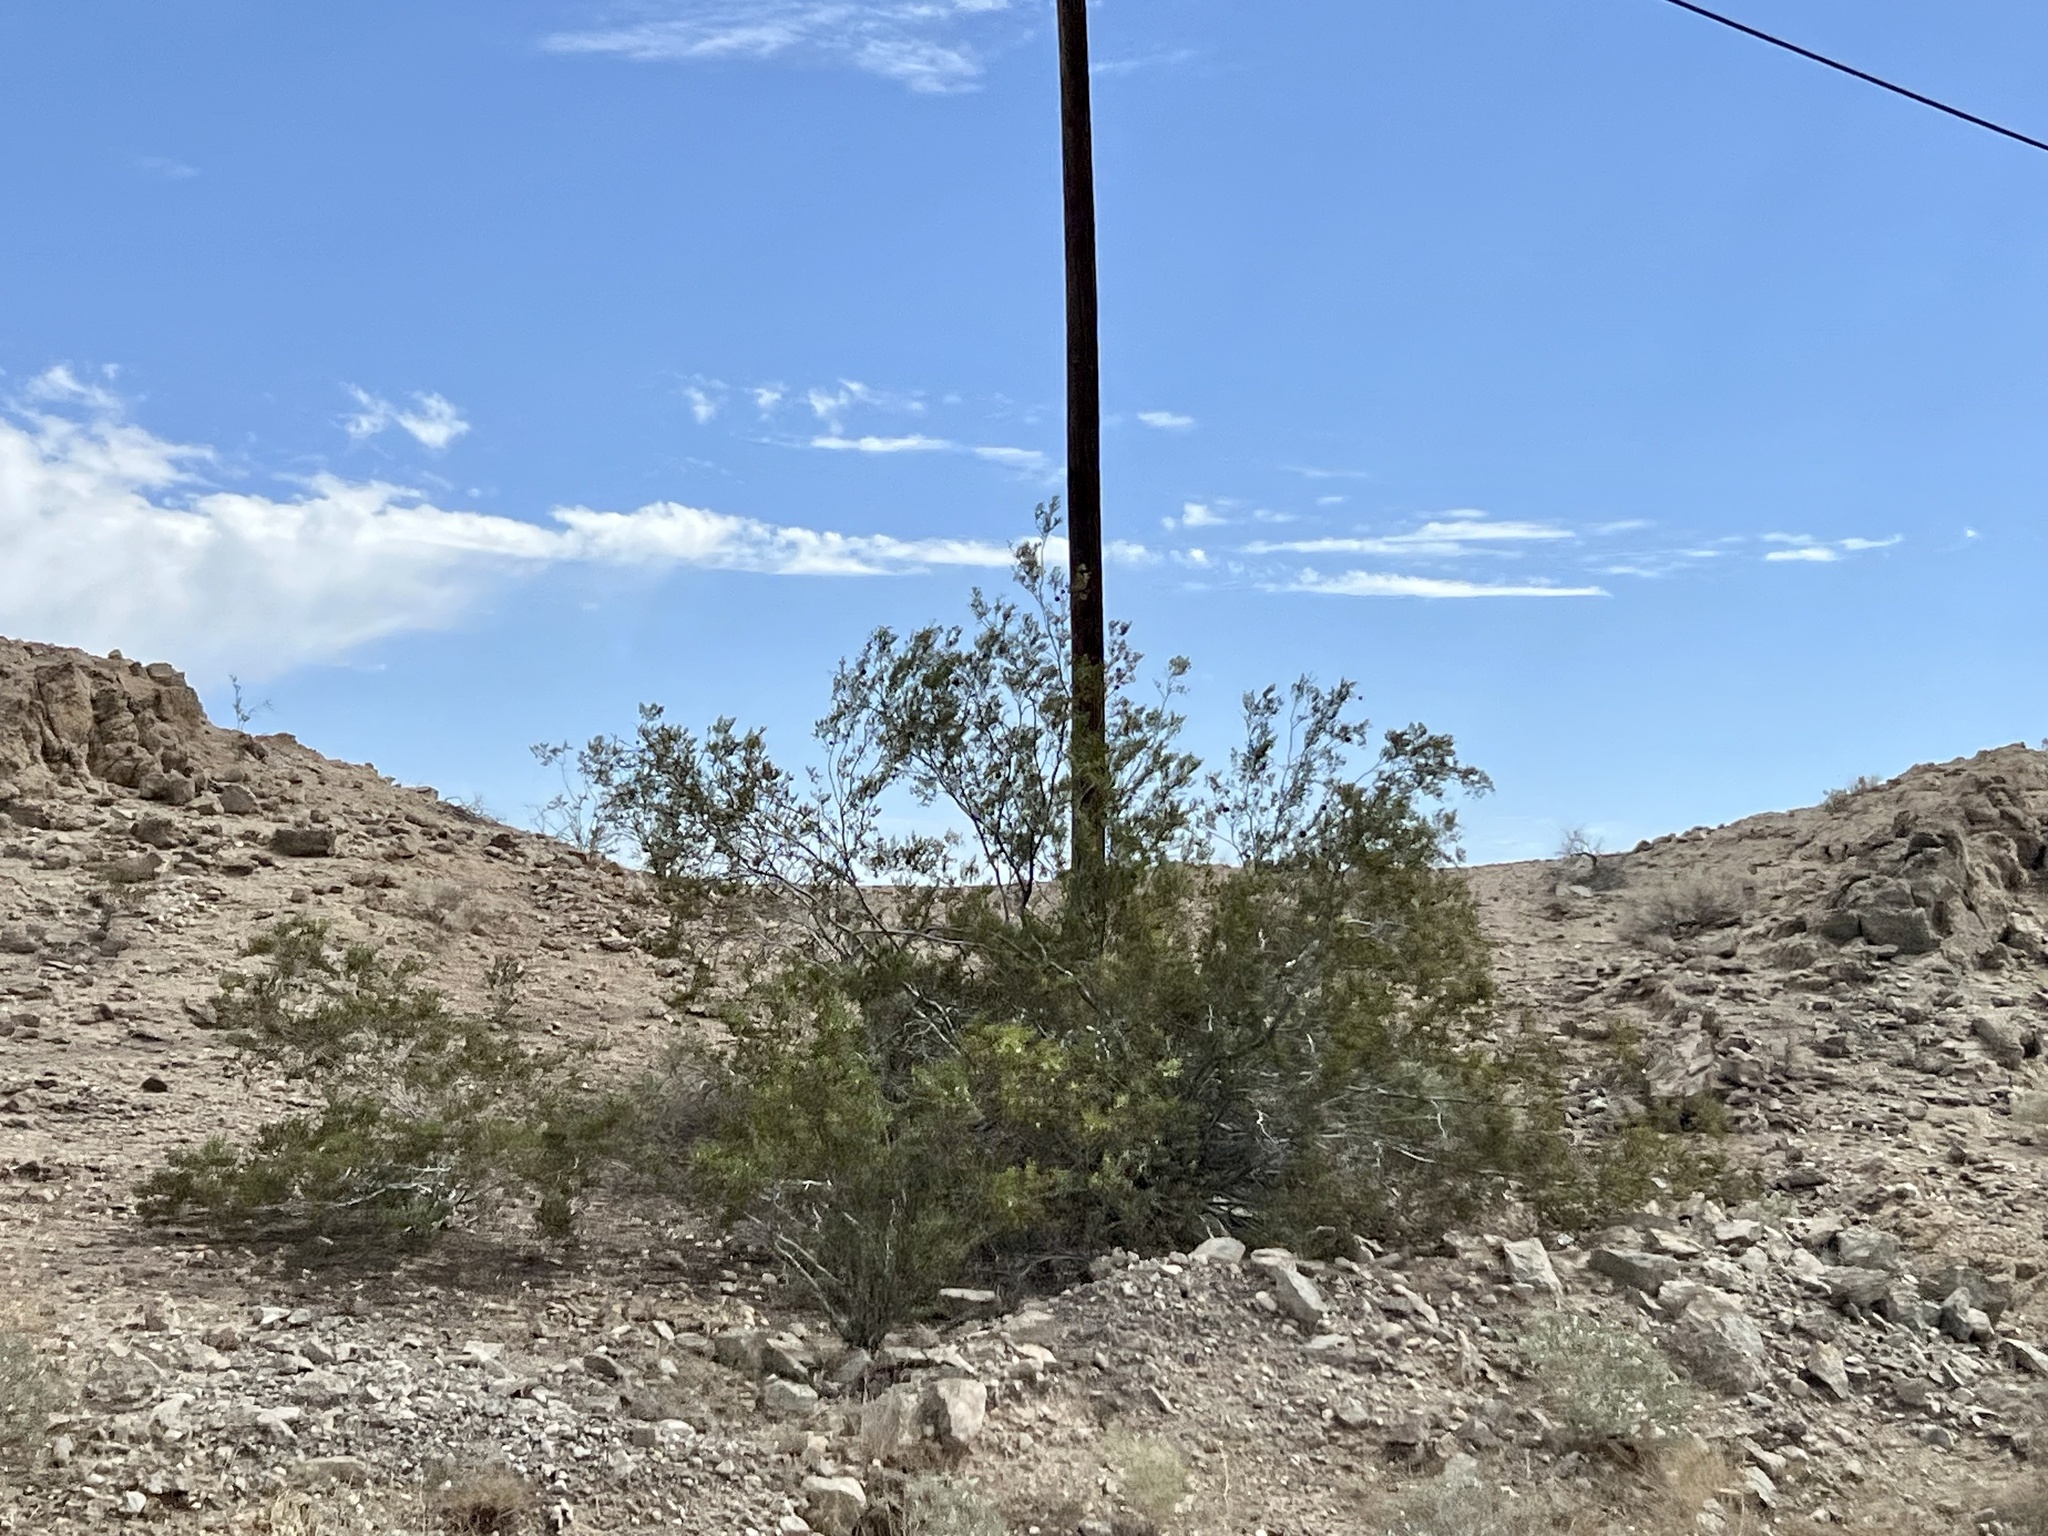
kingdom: Plantae
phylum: Tracheophyta
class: Magnoliopsida
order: Zygophyllales
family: Zygophyllaceae
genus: Larrea
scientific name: Larrea tridentata
